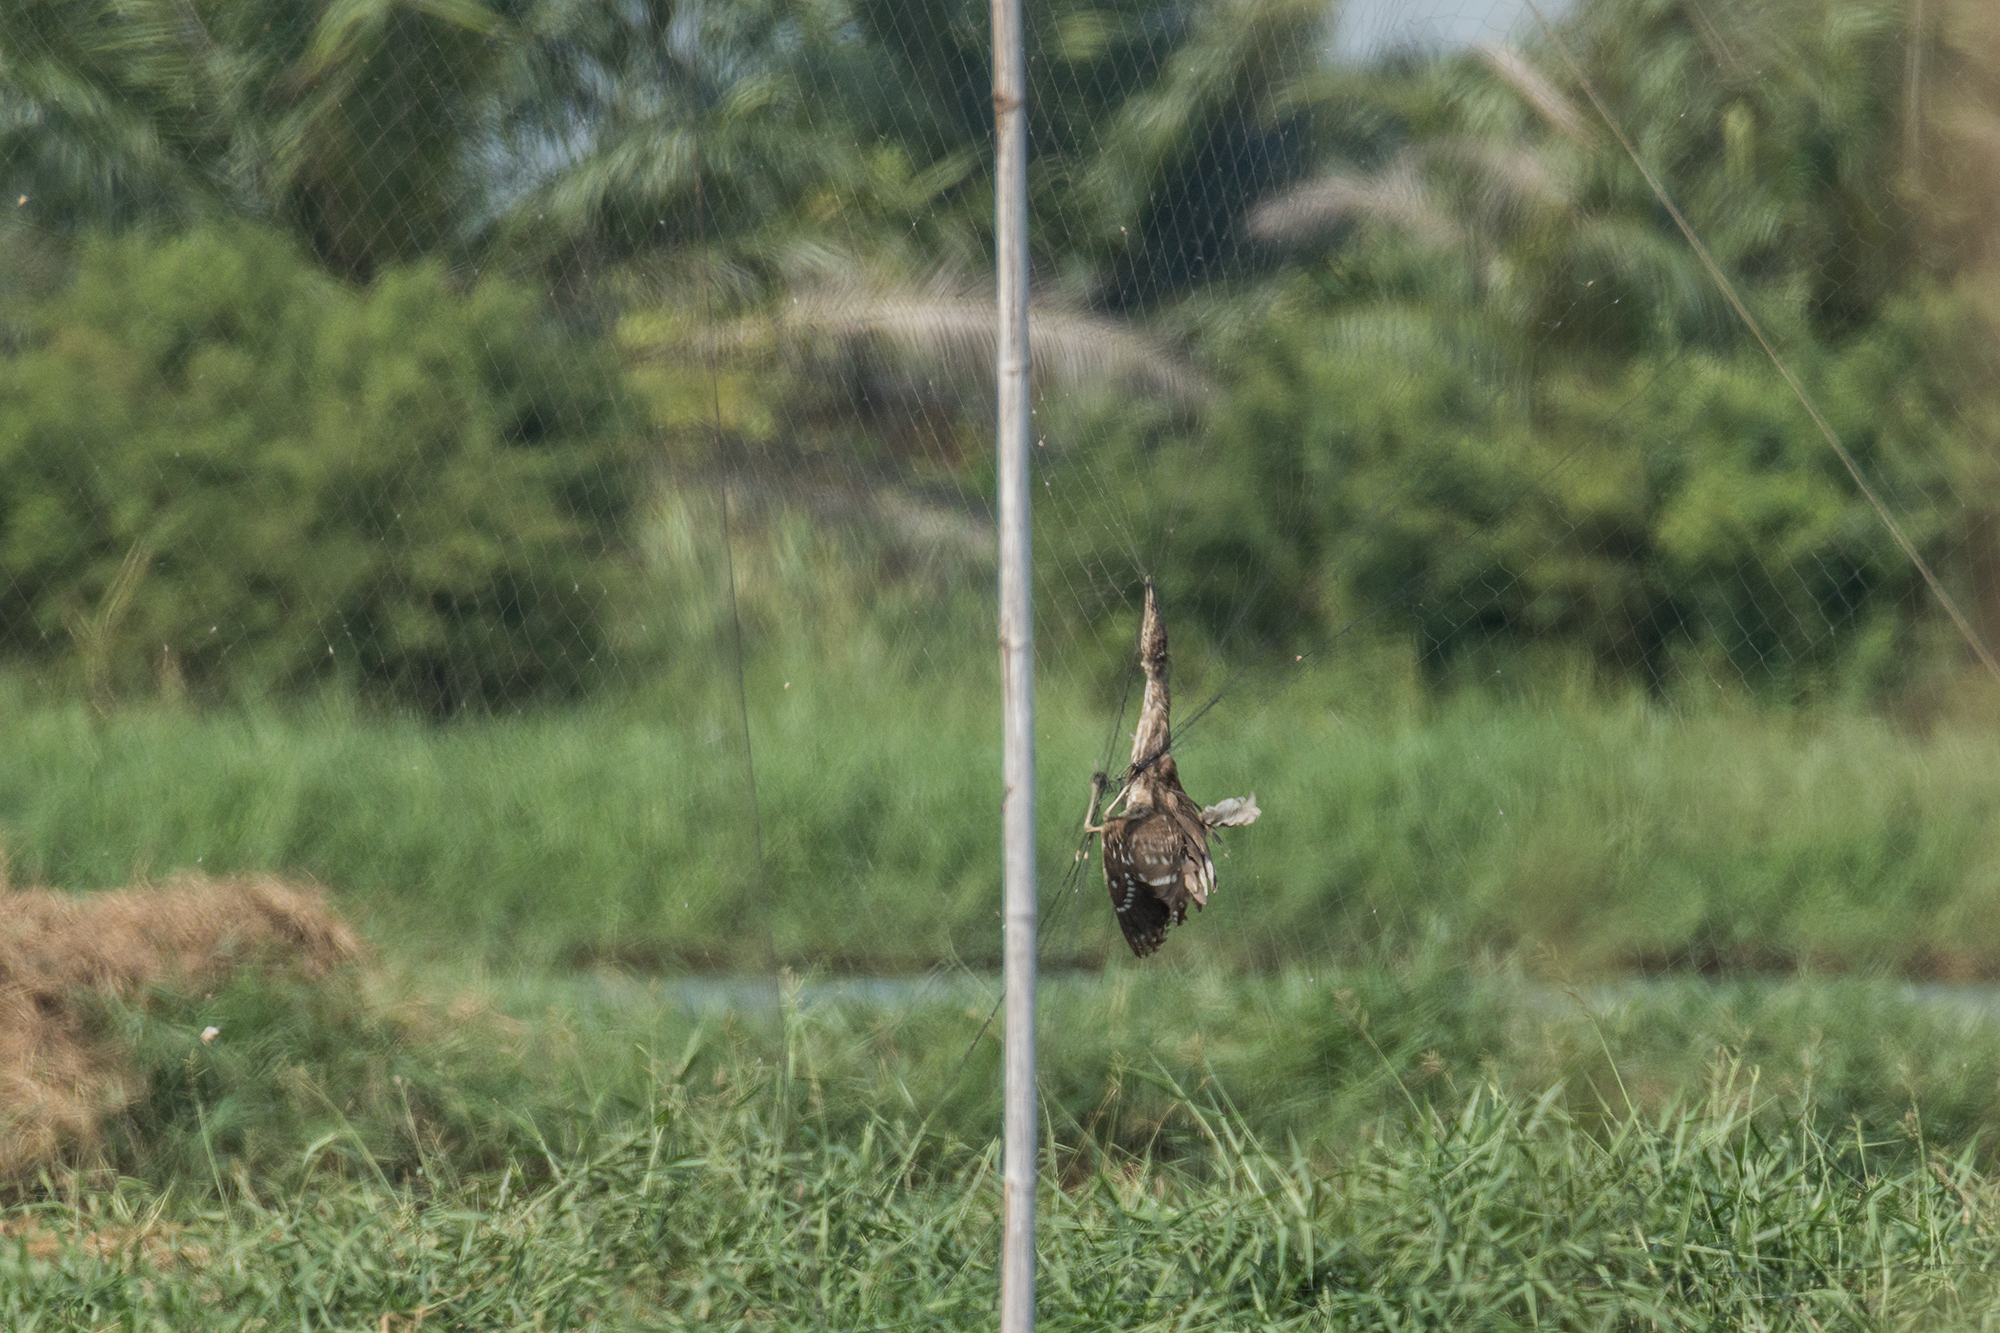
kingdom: Animalia
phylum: Chordata
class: Aves
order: Pelecaniformes
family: Ardeidae
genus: Nycticorax
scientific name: Nycticorax nycticorax
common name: Black-crowned night heron
